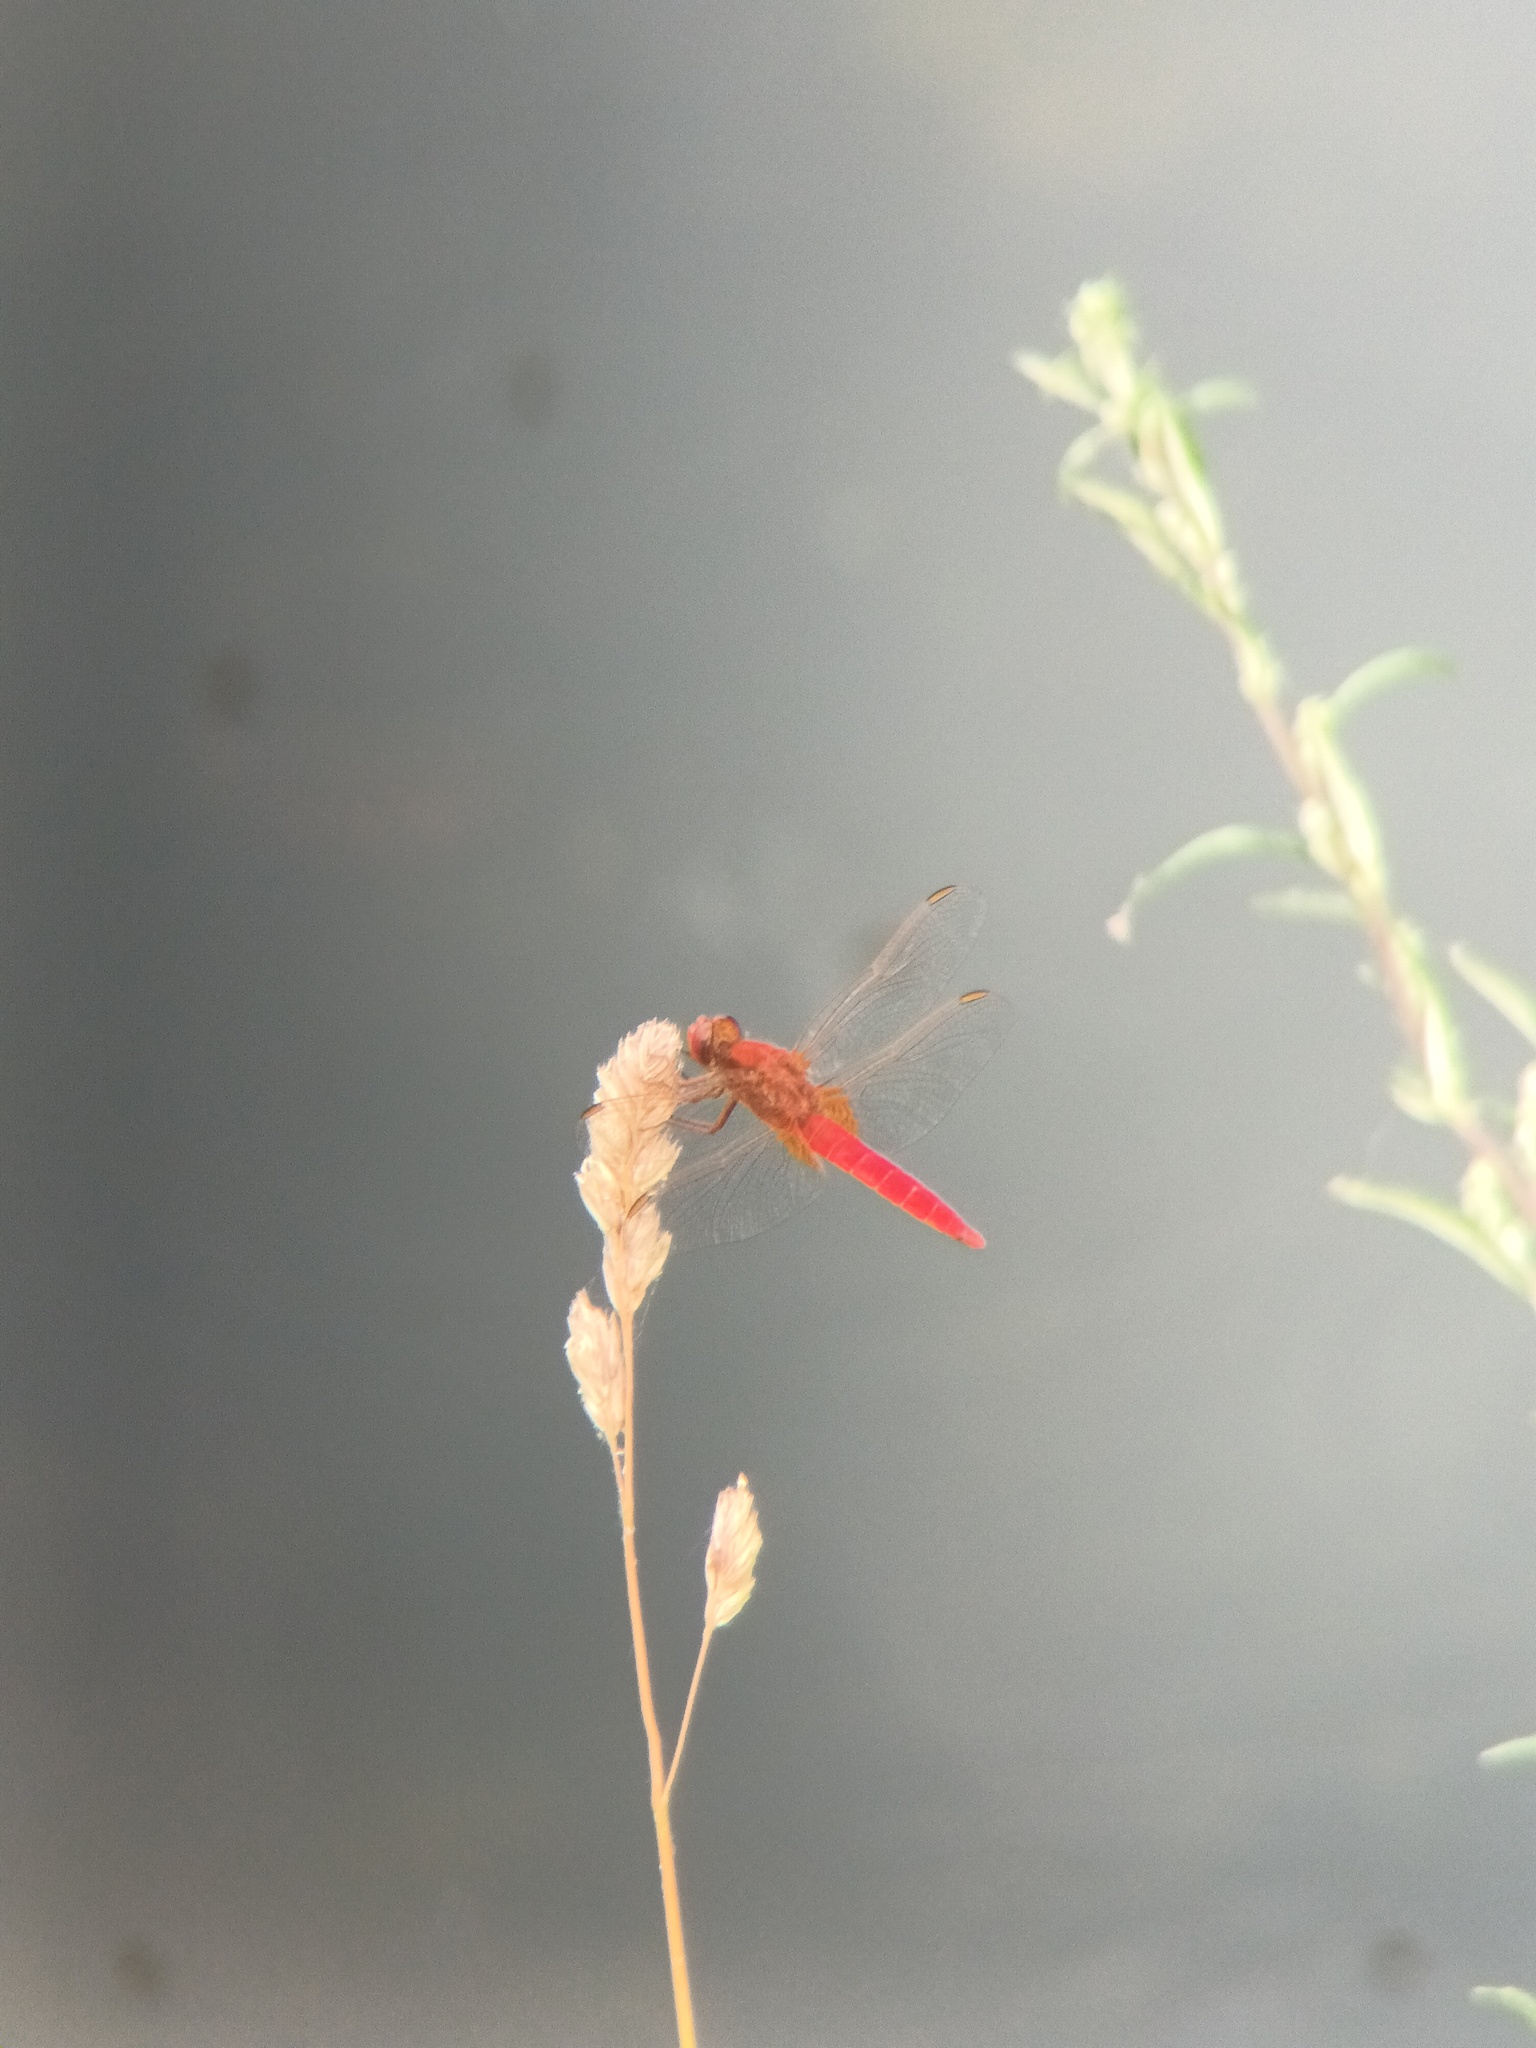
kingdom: Animalia
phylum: Arthropoda
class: Insecta
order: Odonata
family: Libellulidae
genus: Crocothemis
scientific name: Crocothemis erythraea
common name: Scarlet dragonfly
